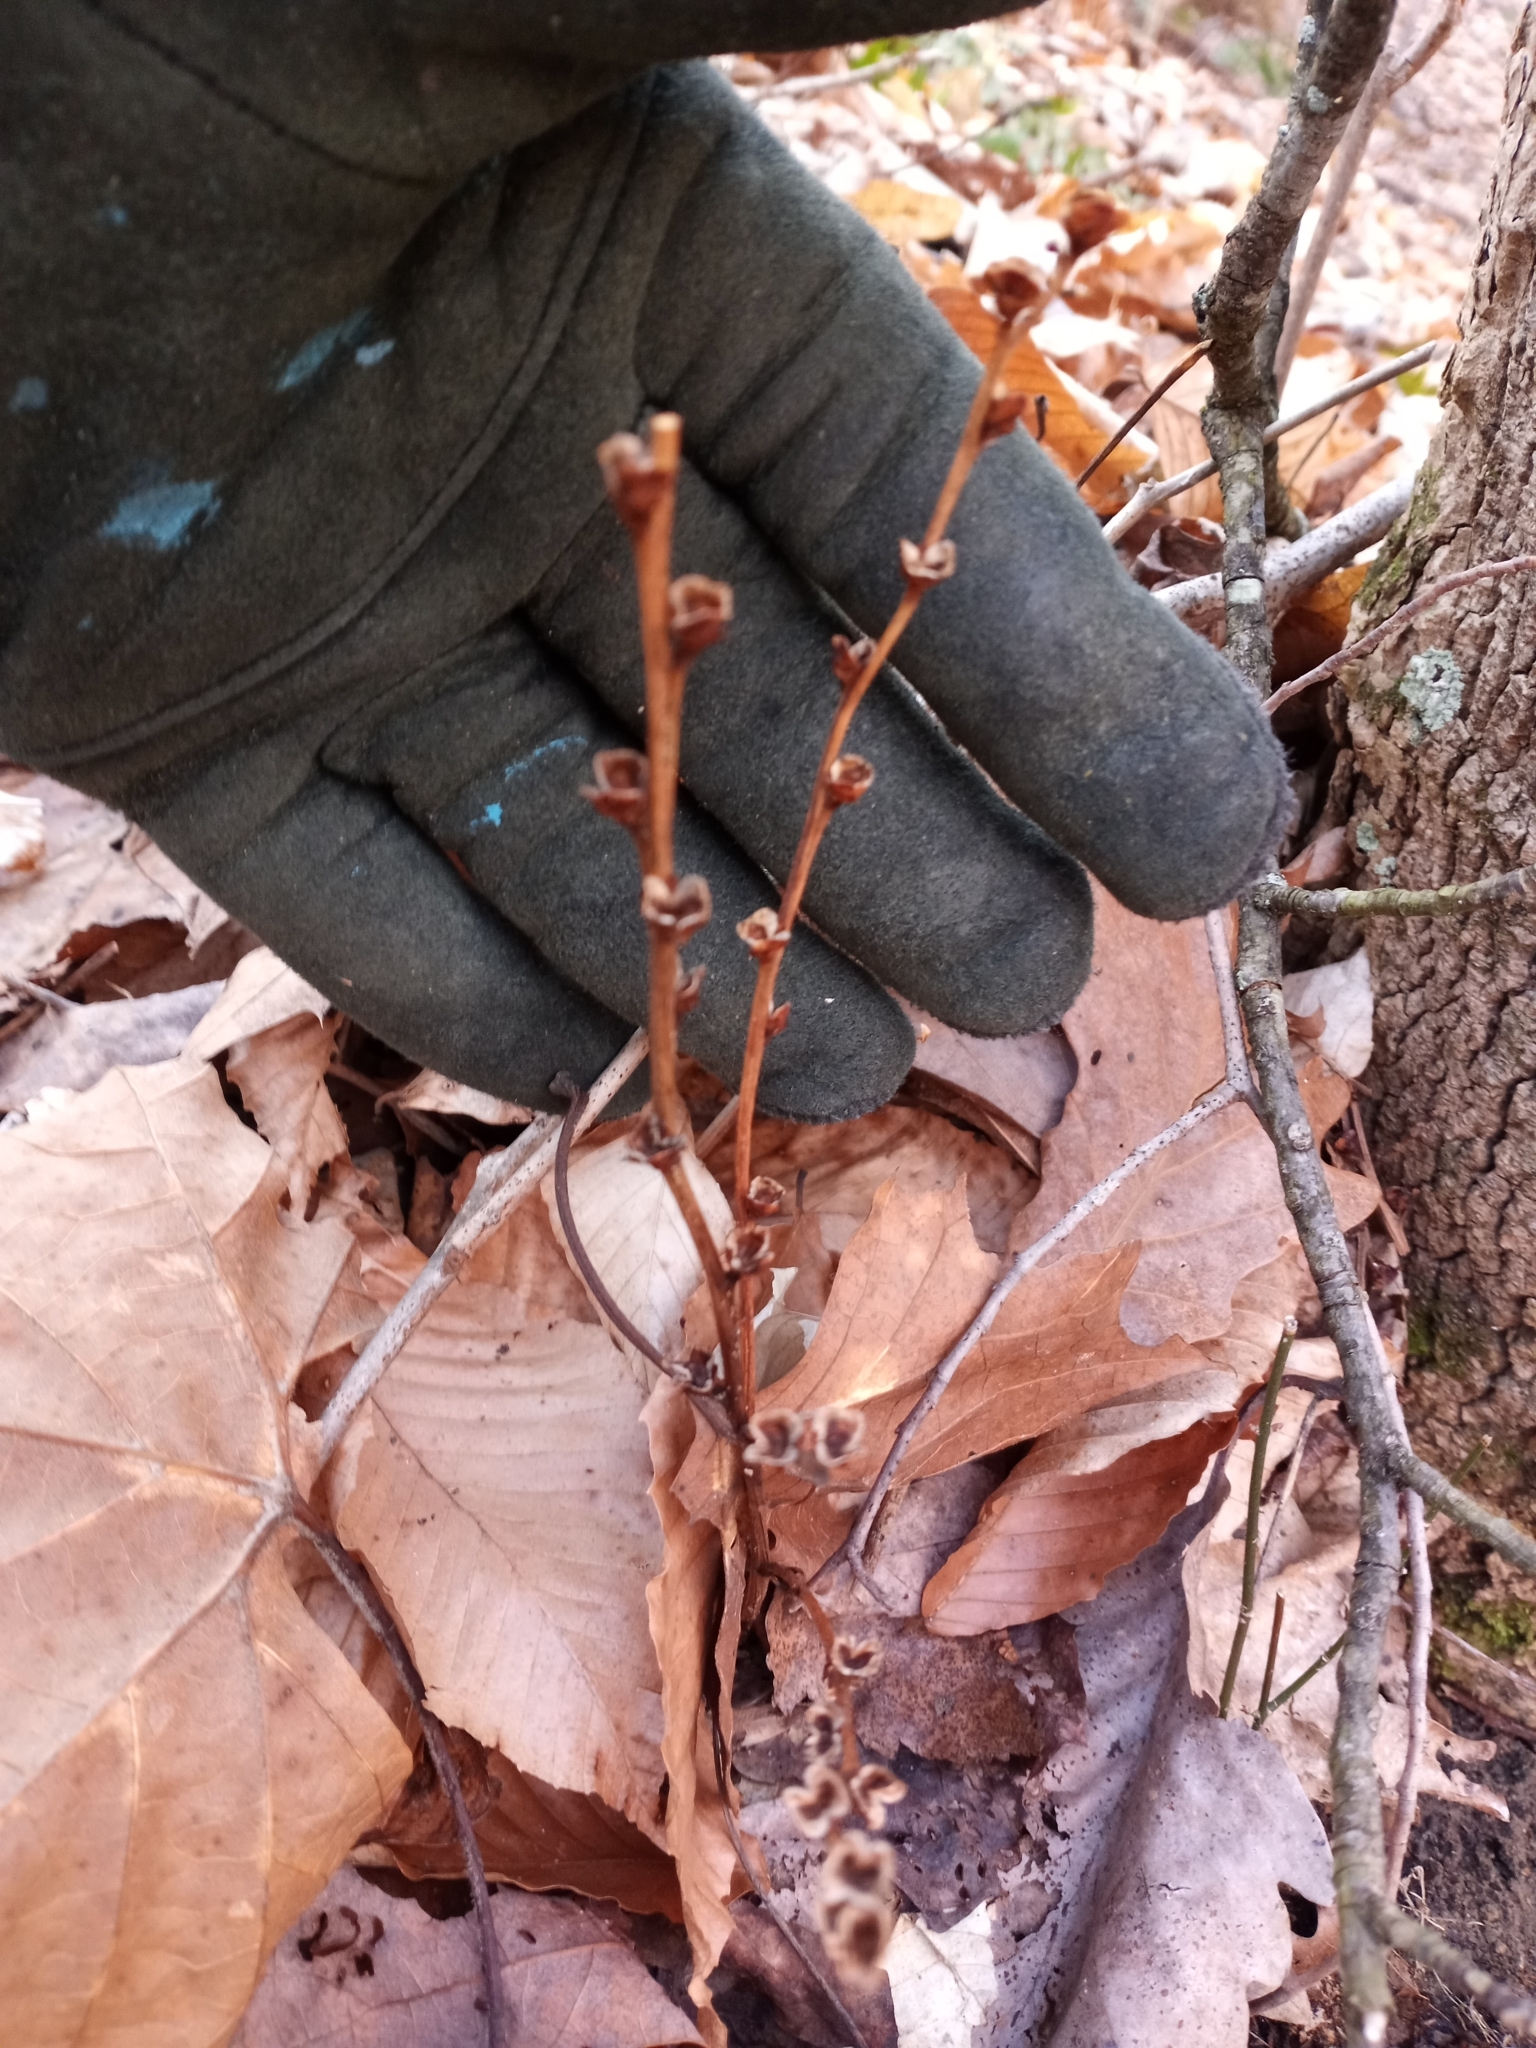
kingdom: Plantae
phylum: Tracheophyta
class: Magnoliopsida
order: Lamiales
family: Orobanchaceae
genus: Epifagus
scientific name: Epifagus virginiana
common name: Beechdrops
